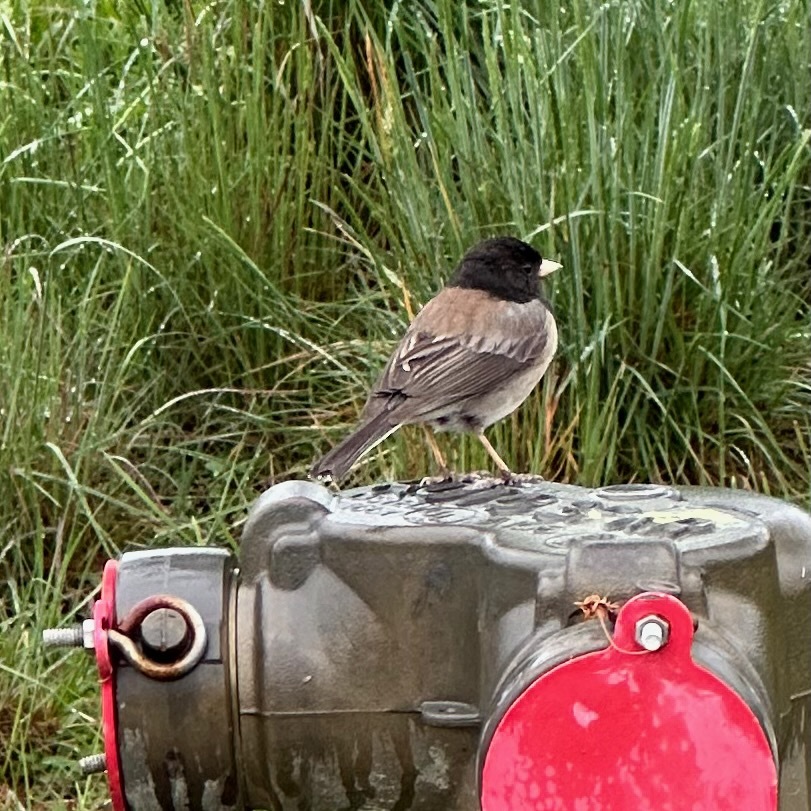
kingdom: Animalia
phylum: Chordata
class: Aves
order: Passeriformes
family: Passerellidae
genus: Junco
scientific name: Junco hyemalis
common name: Dark-eyed junco
